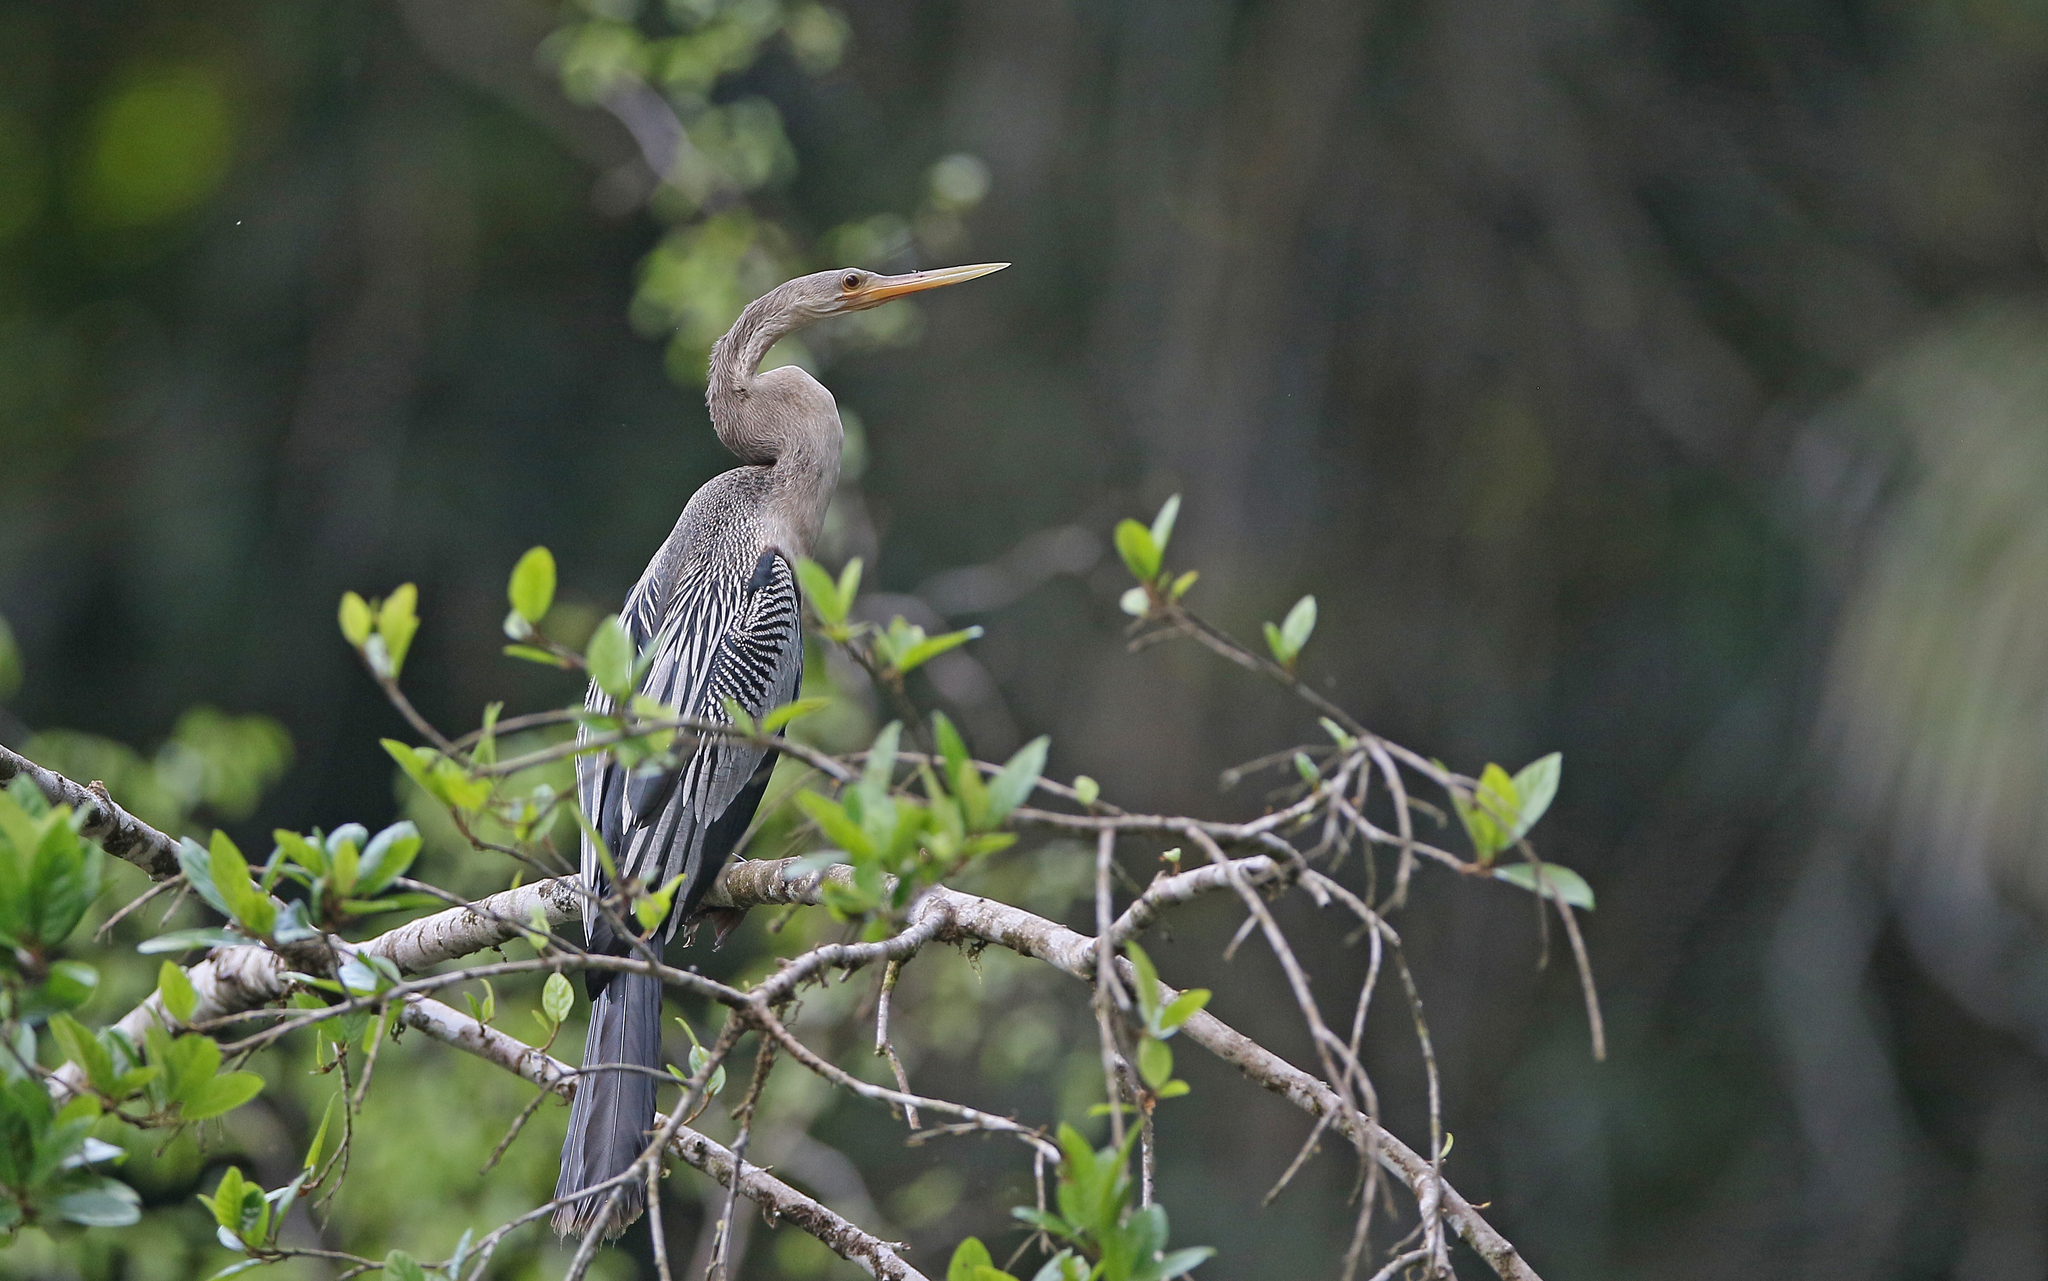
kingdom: Animalia
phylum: Chordata
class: Aves
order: Suliformes
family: Anhingidae
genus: Anhinga
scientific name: Anhinga anhinga
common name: Anhinga
